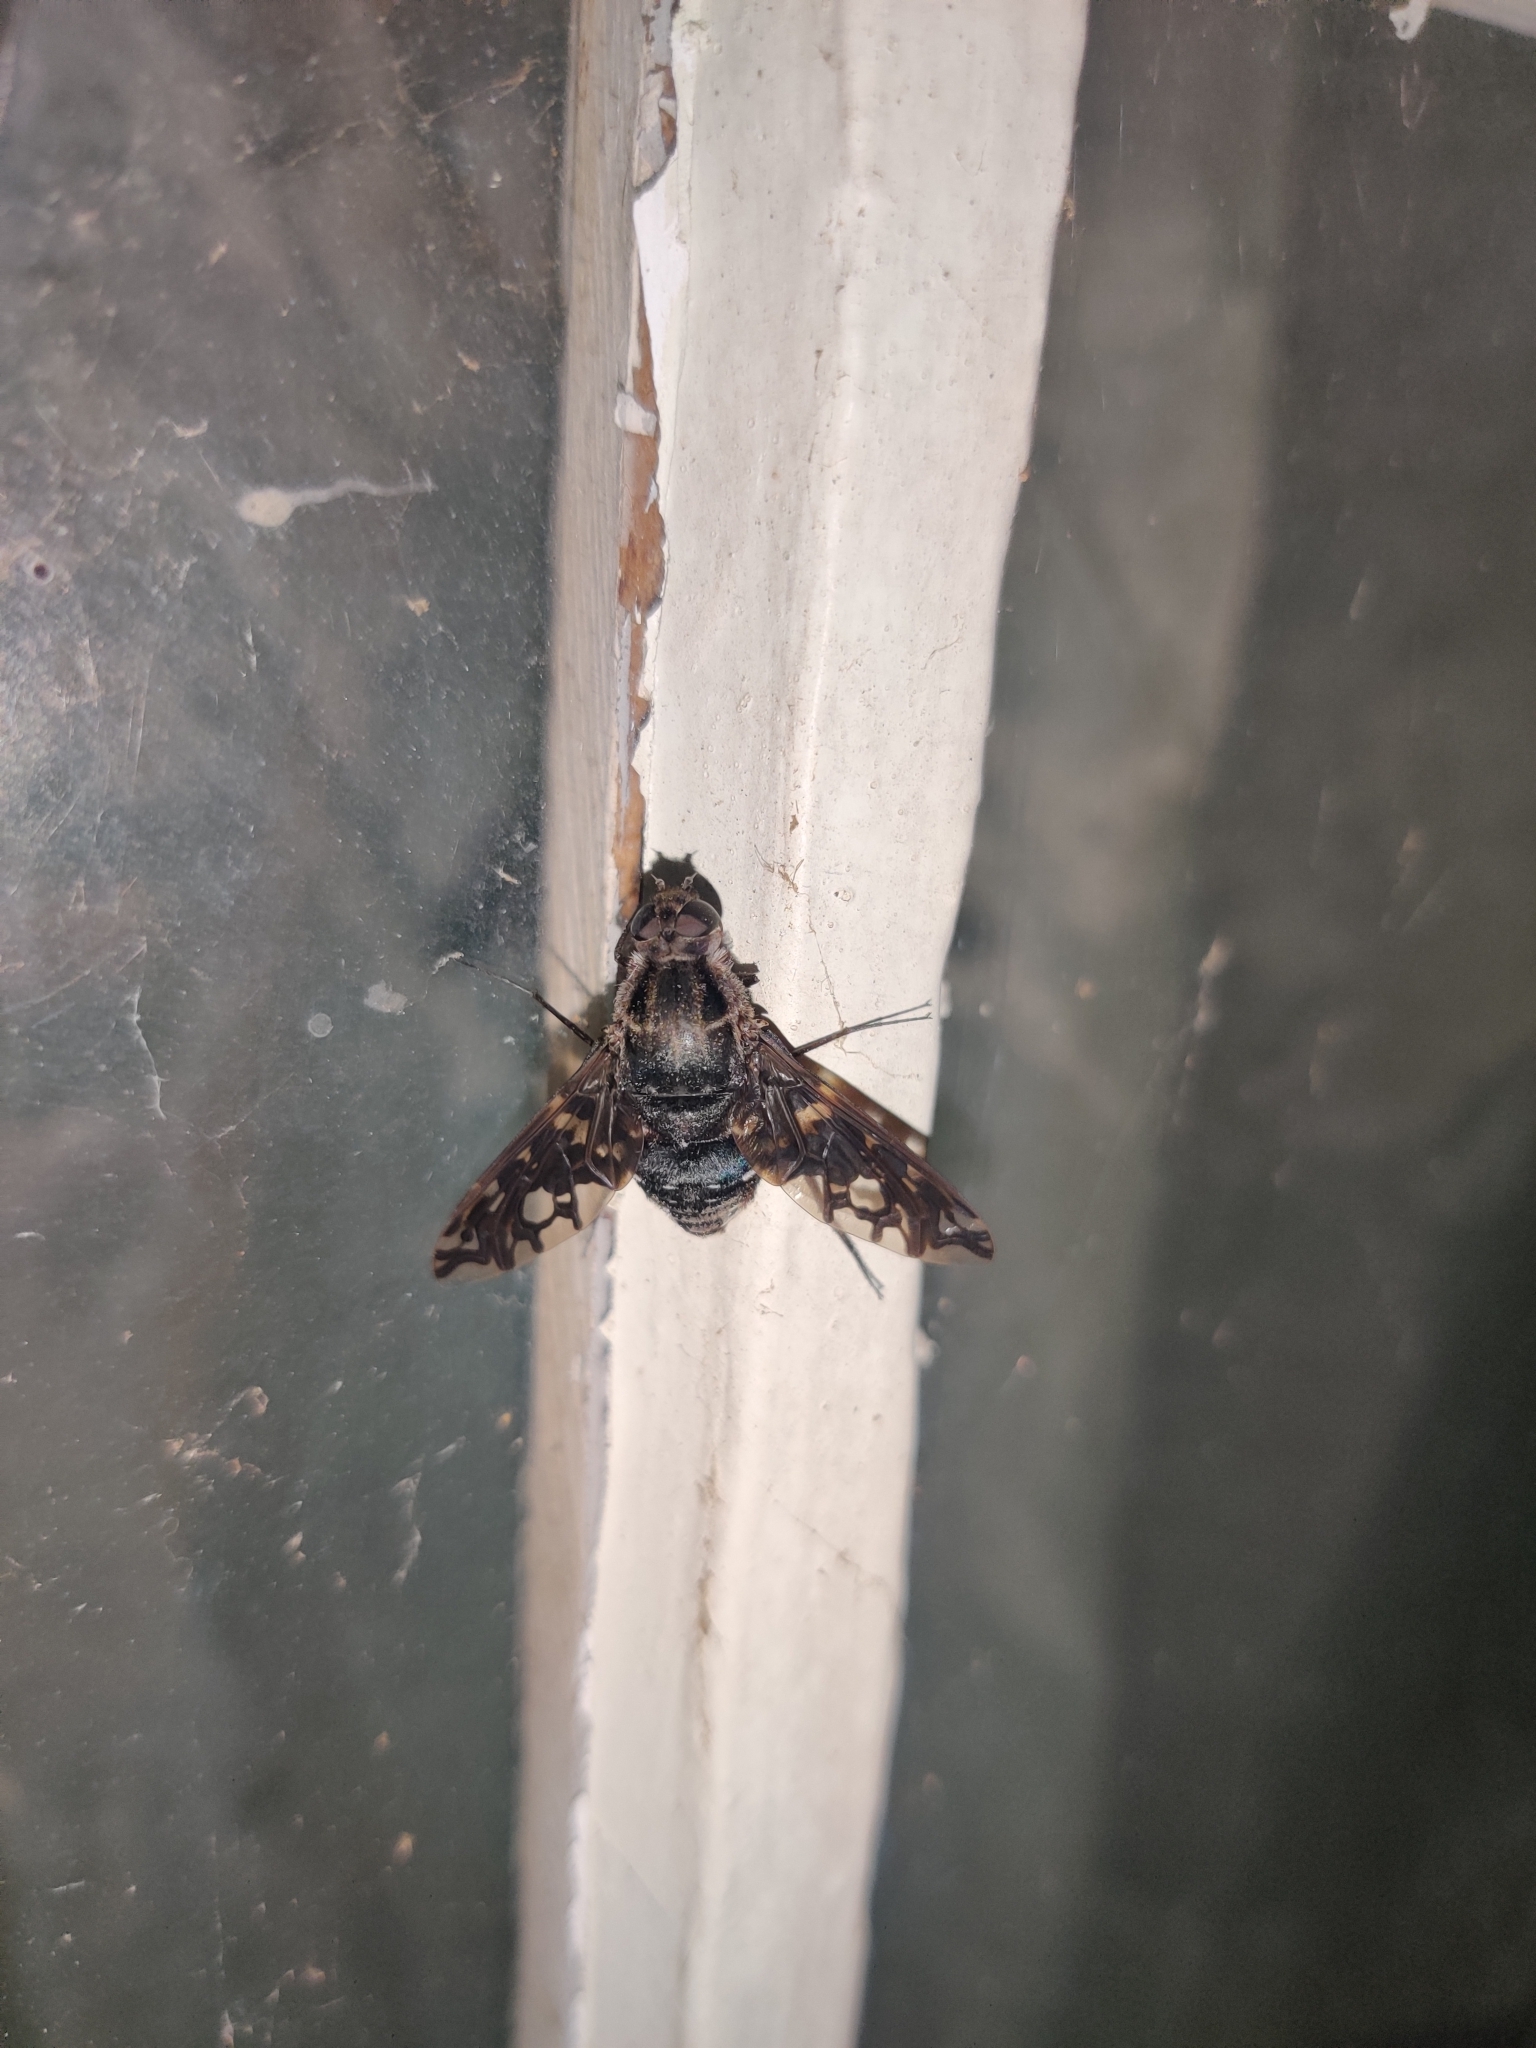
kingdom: Animalia
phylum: Arthropoda
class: Insecta
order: Diptera
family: Bombyliidae
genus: Xenox
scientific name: Xenox tigrinus
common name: Tiger bee fly
